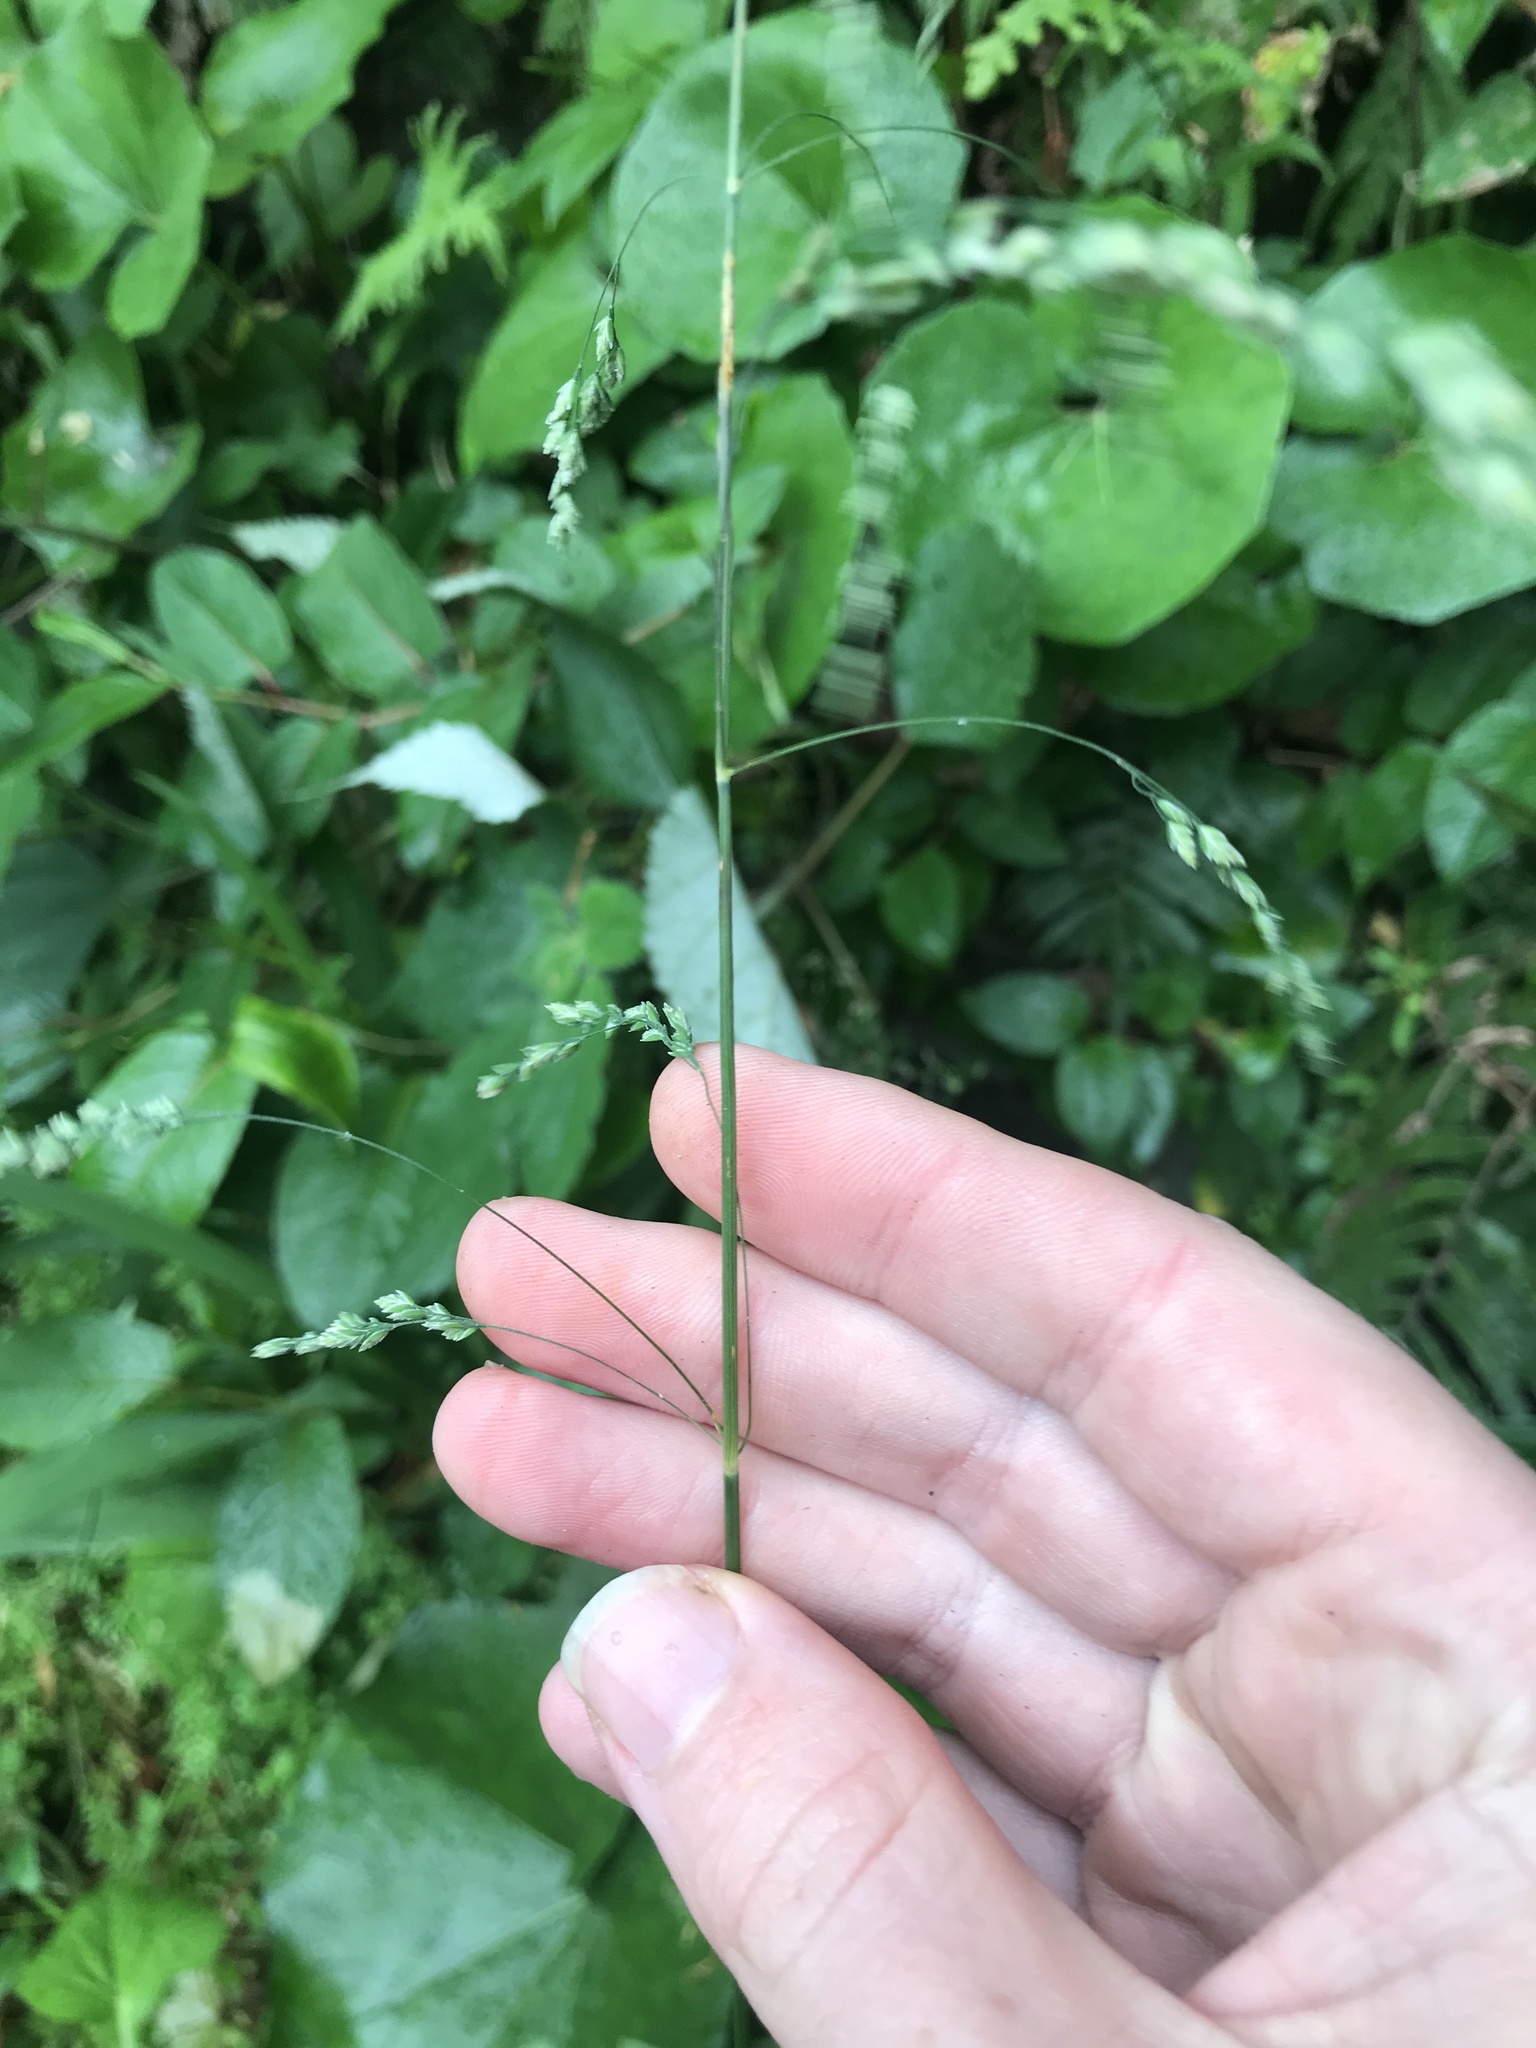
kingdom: Plantae
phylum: Tracheophyta
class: Liliopsida
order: Poales
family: Poaceae
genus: Poa
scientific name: Poa acroleuca
